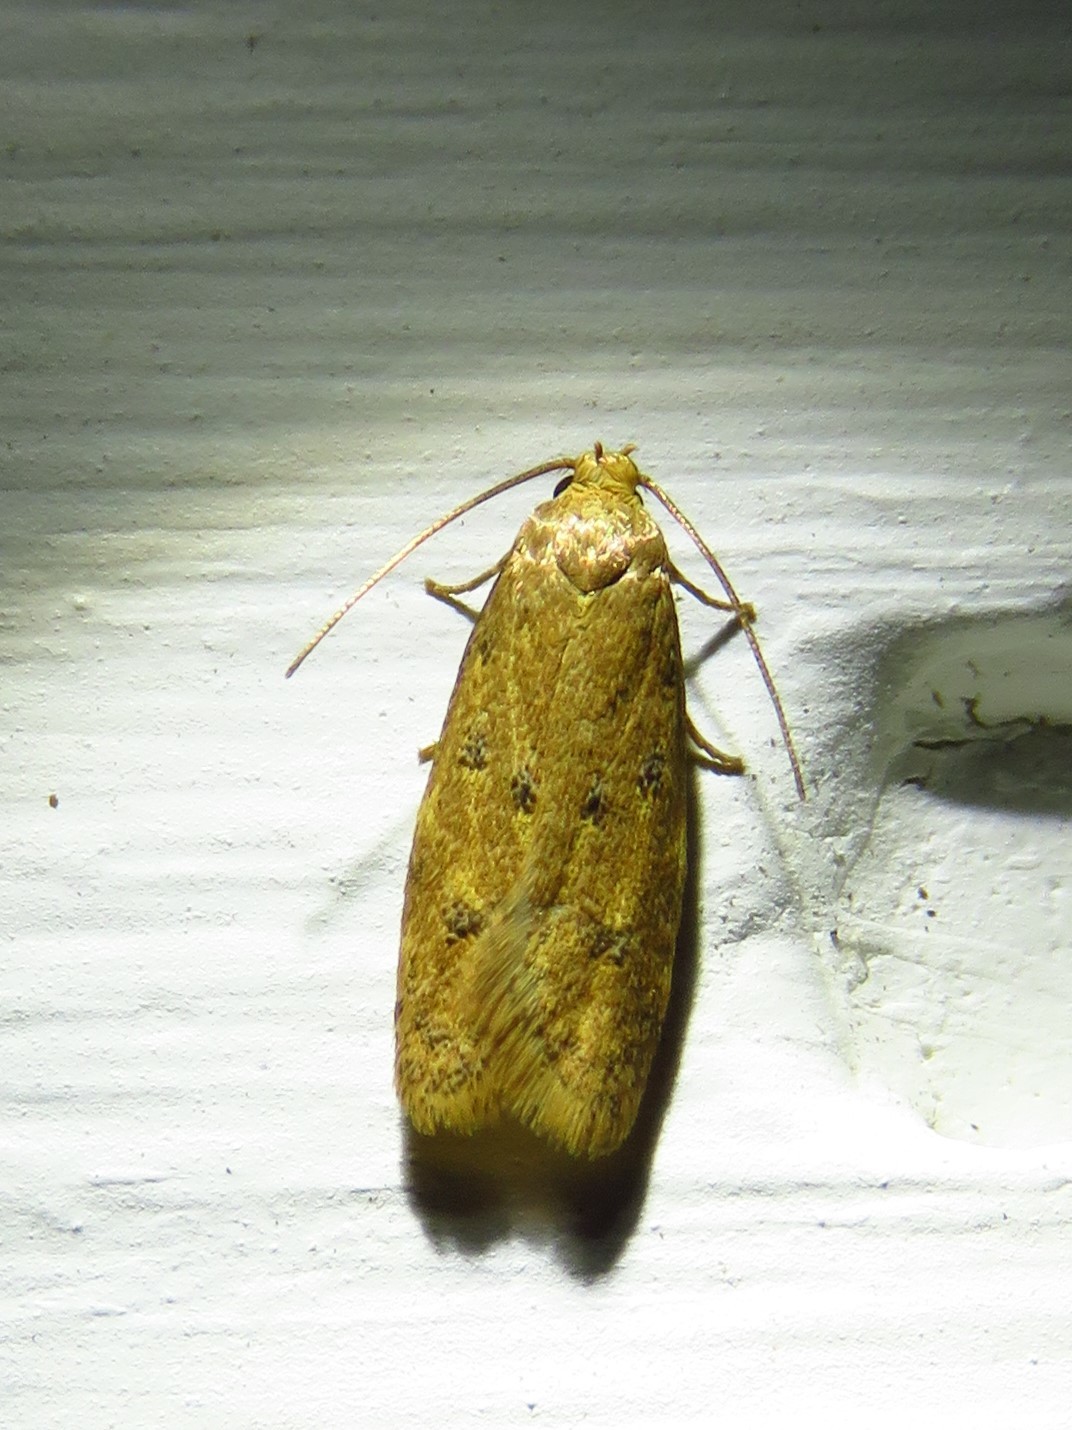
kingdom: Animalia
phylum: Arthropoda
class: Insecta
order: Lepidoptera
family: Autostichidae
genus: Gerdana
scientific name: Gerdana caritella
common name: Gerdana moth
